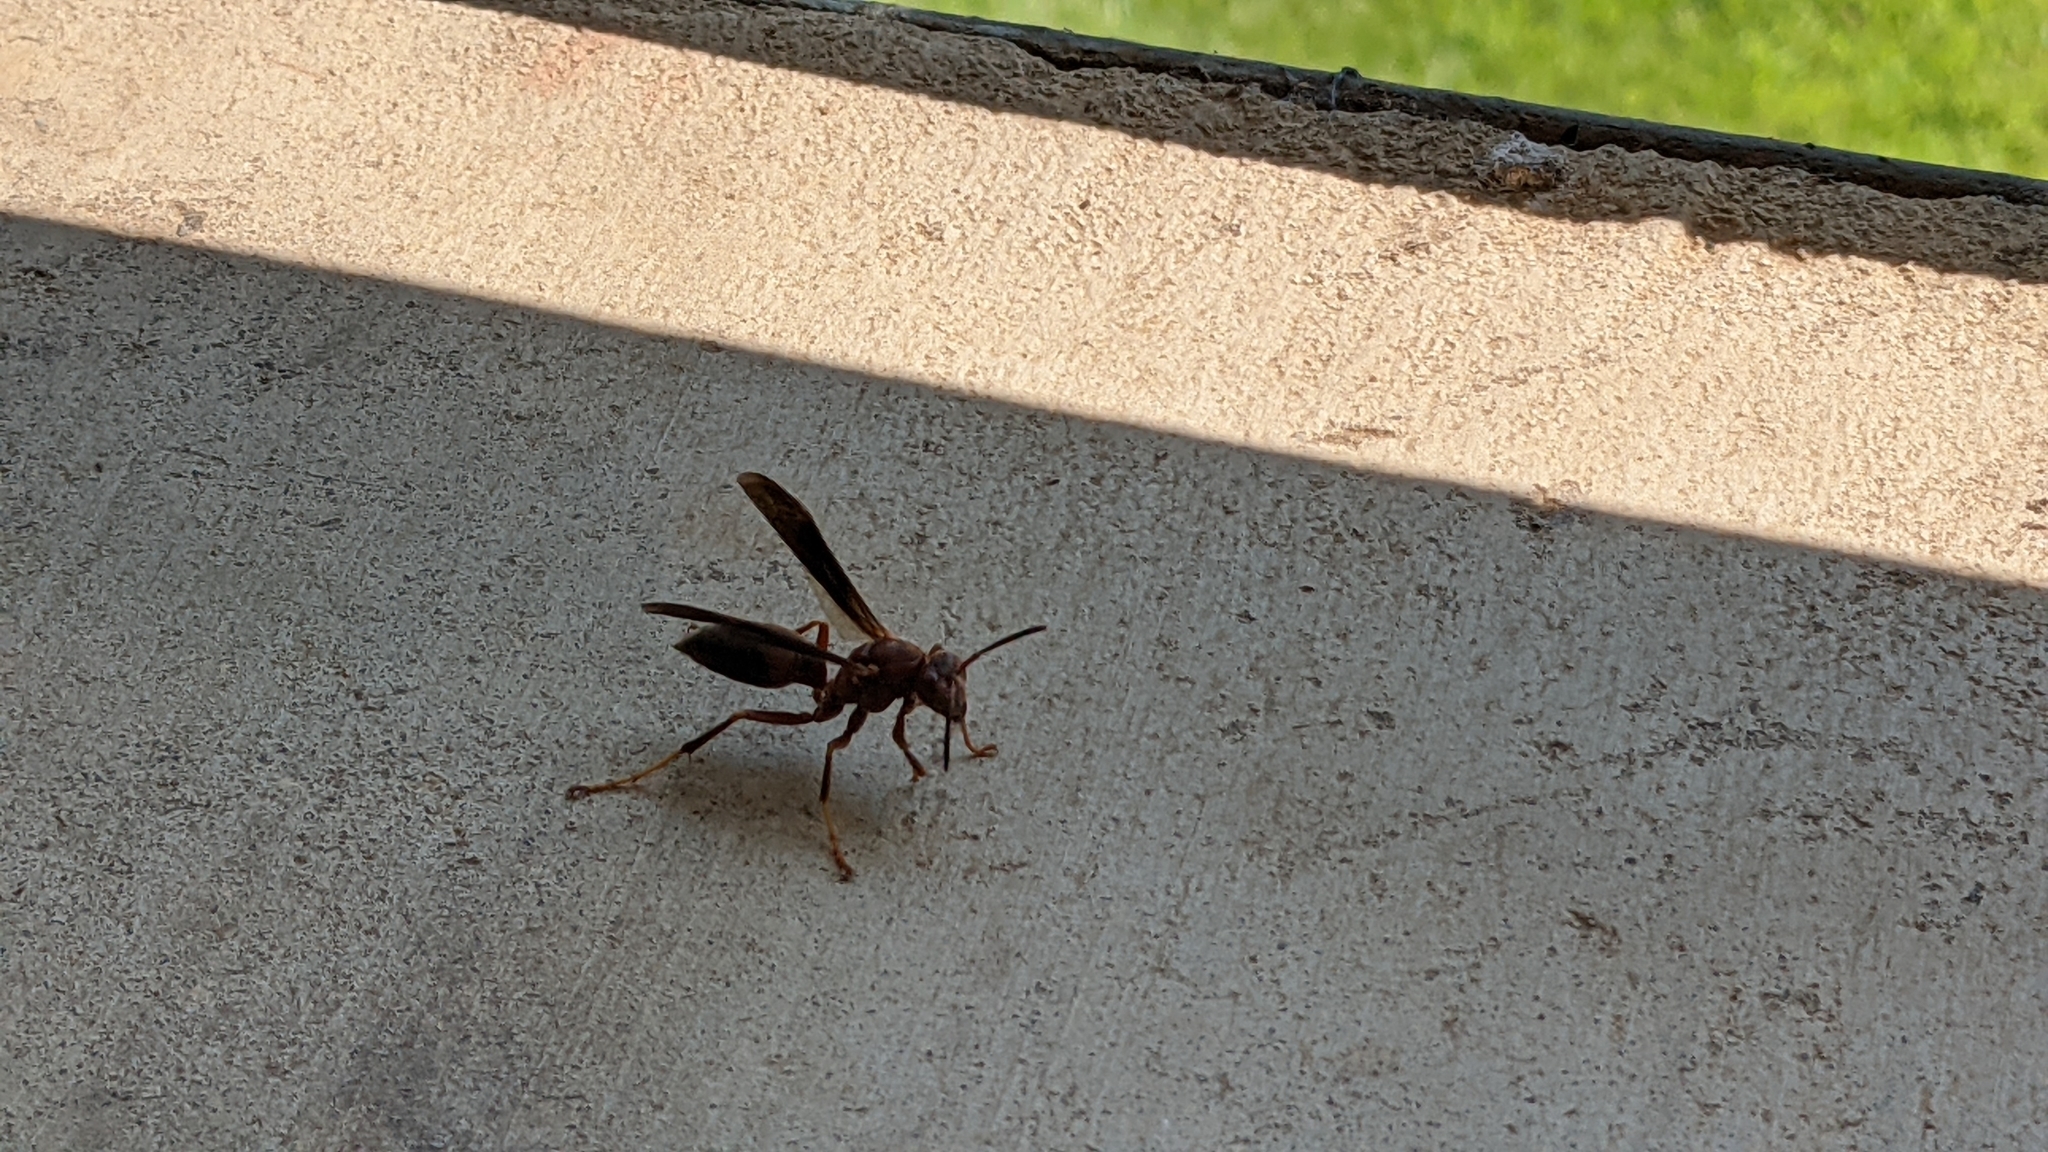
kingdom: Animalia
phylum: Arthropoda
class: Insecta
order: Hymenoptera
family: Eumenidae
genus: Polistes
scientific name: Polistes metricus
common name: Metric paper wasp
